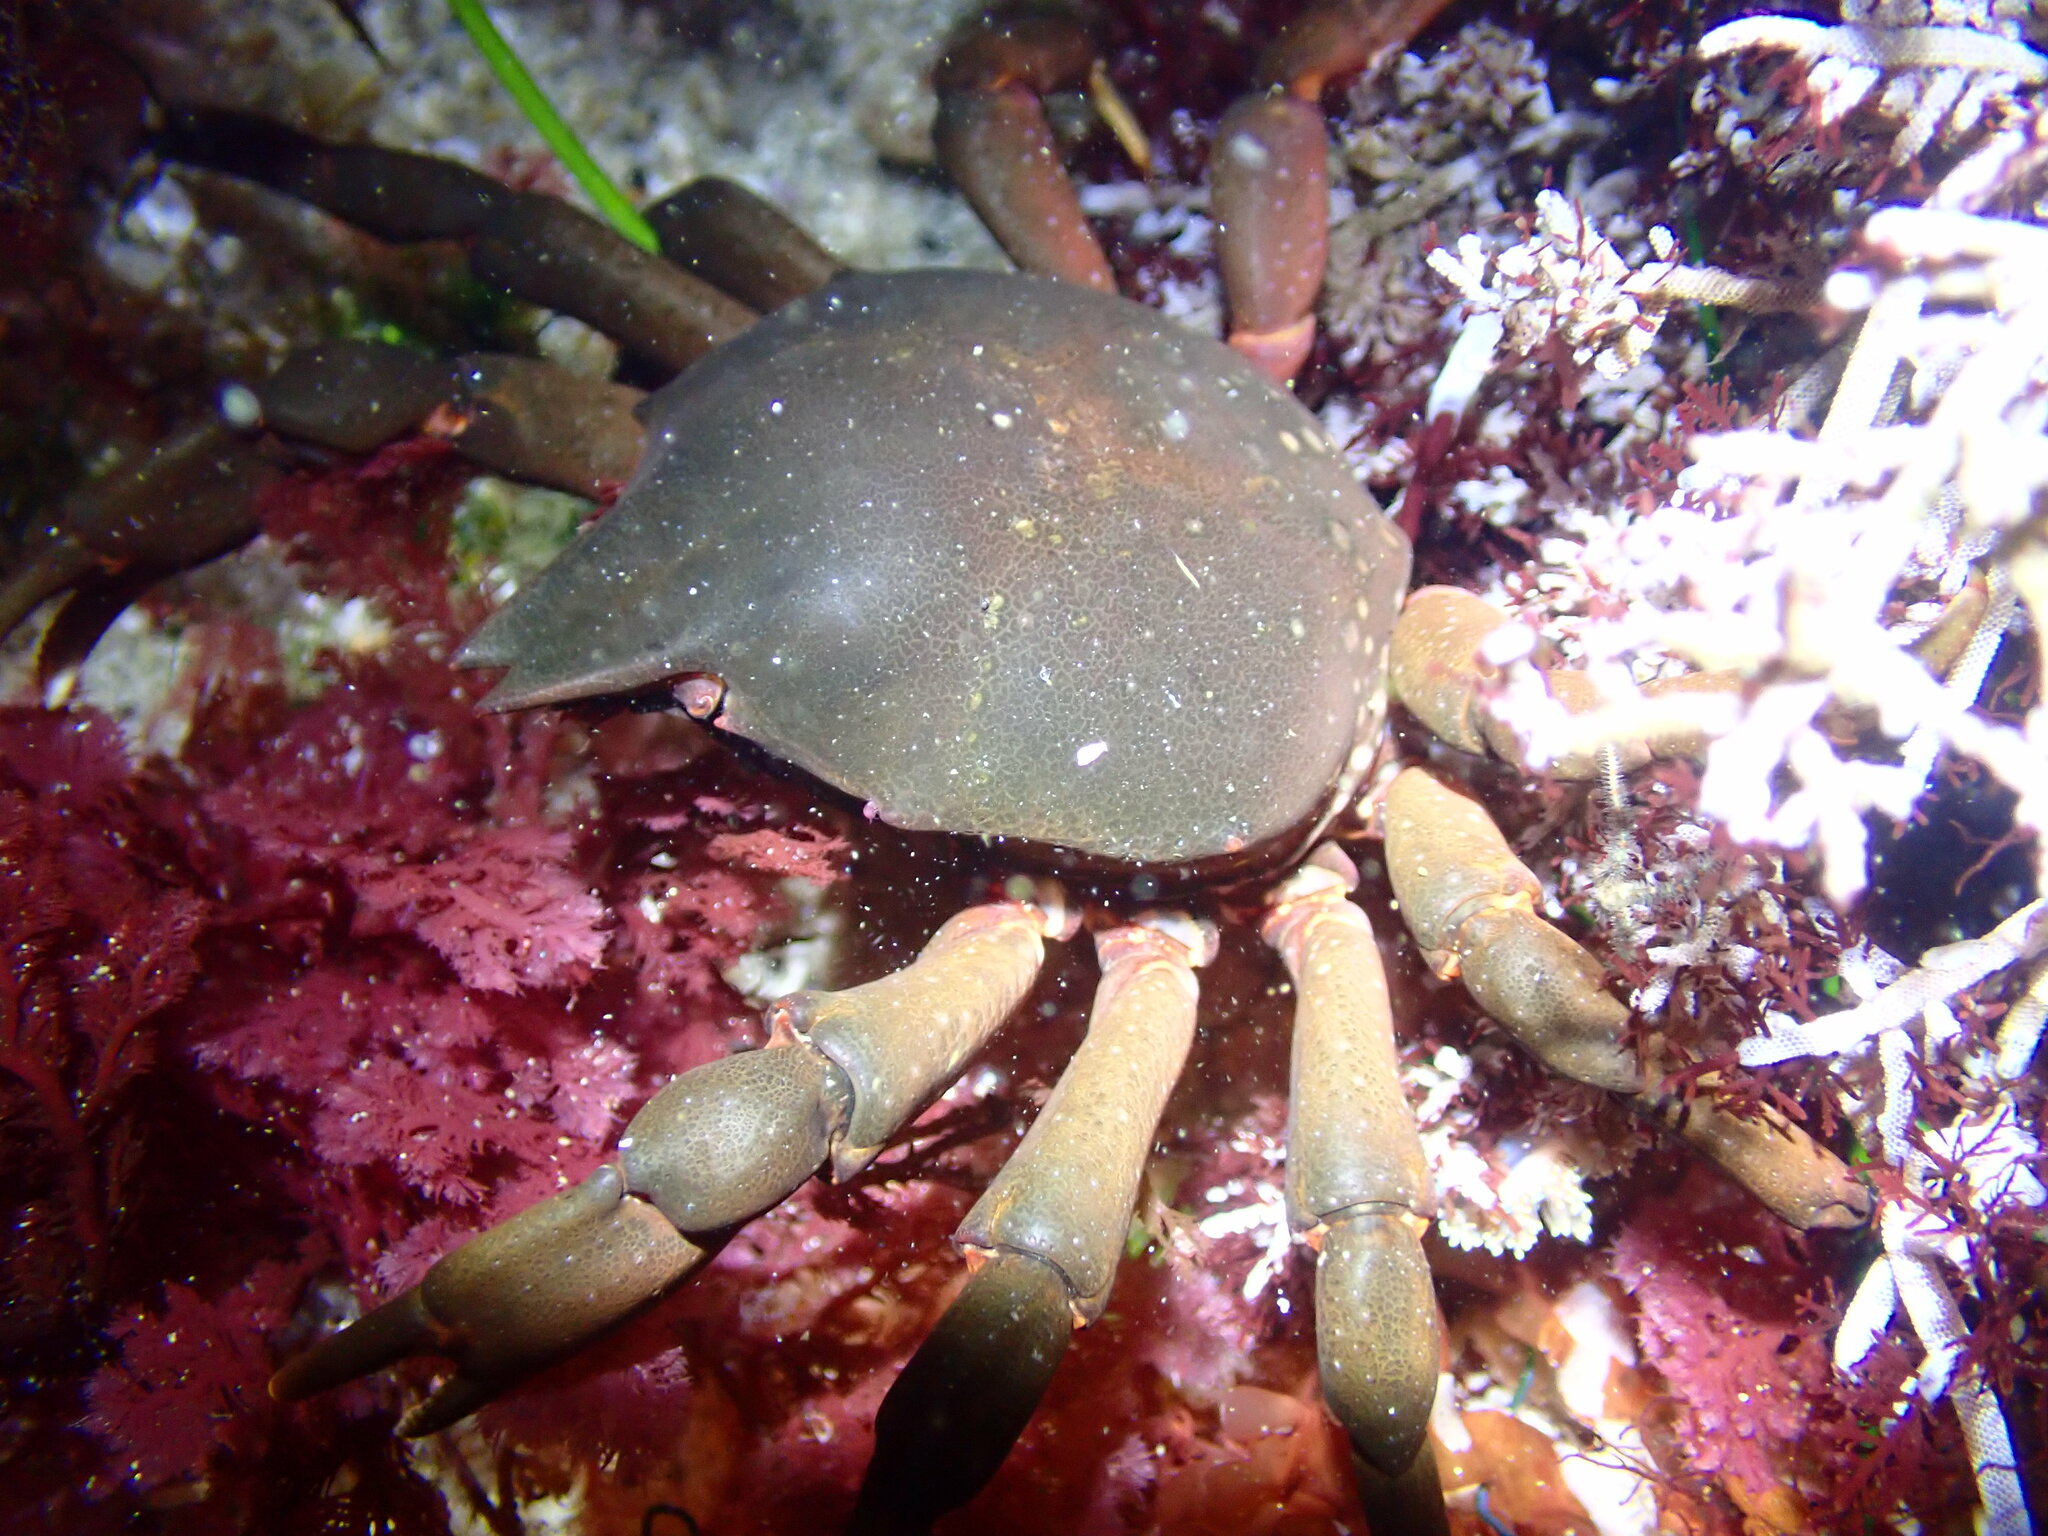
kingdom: Animalia
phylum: Arthropoda
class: Malacostraca
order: Decapoda
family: Epialtidae
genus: Taliepus
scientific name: Taliepus nuttallii
